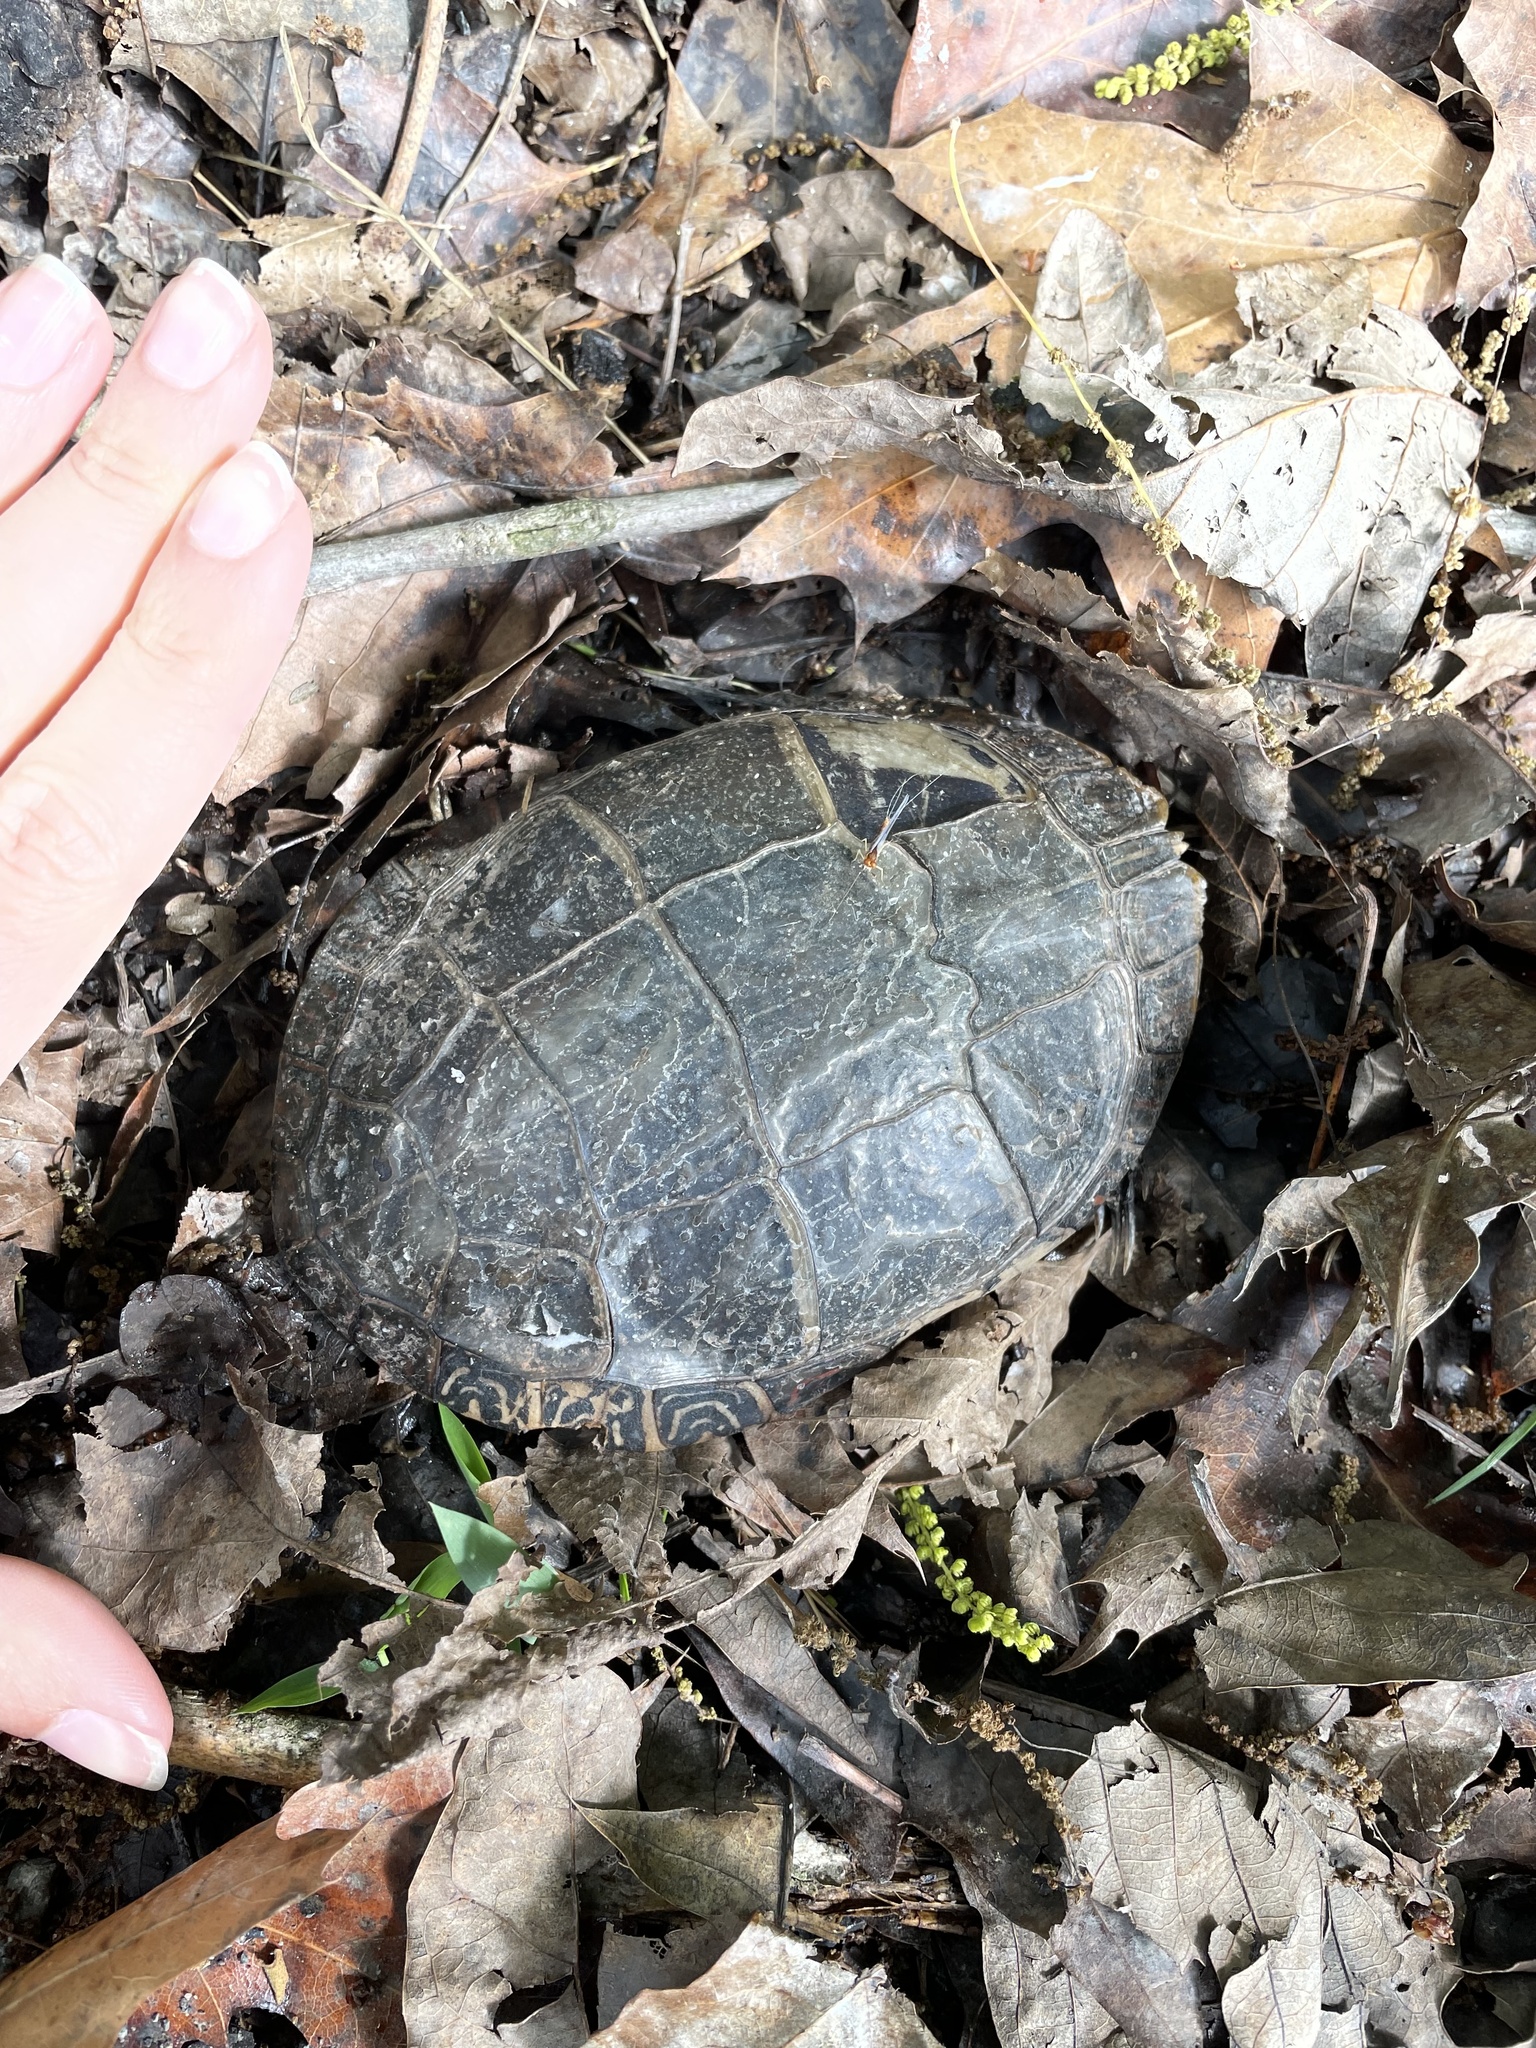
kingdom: Animalia
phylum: Chordata
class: Testudines
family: Emydidae
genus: Chrysemys
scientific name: Chrysemys picta
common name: Painted turtle
